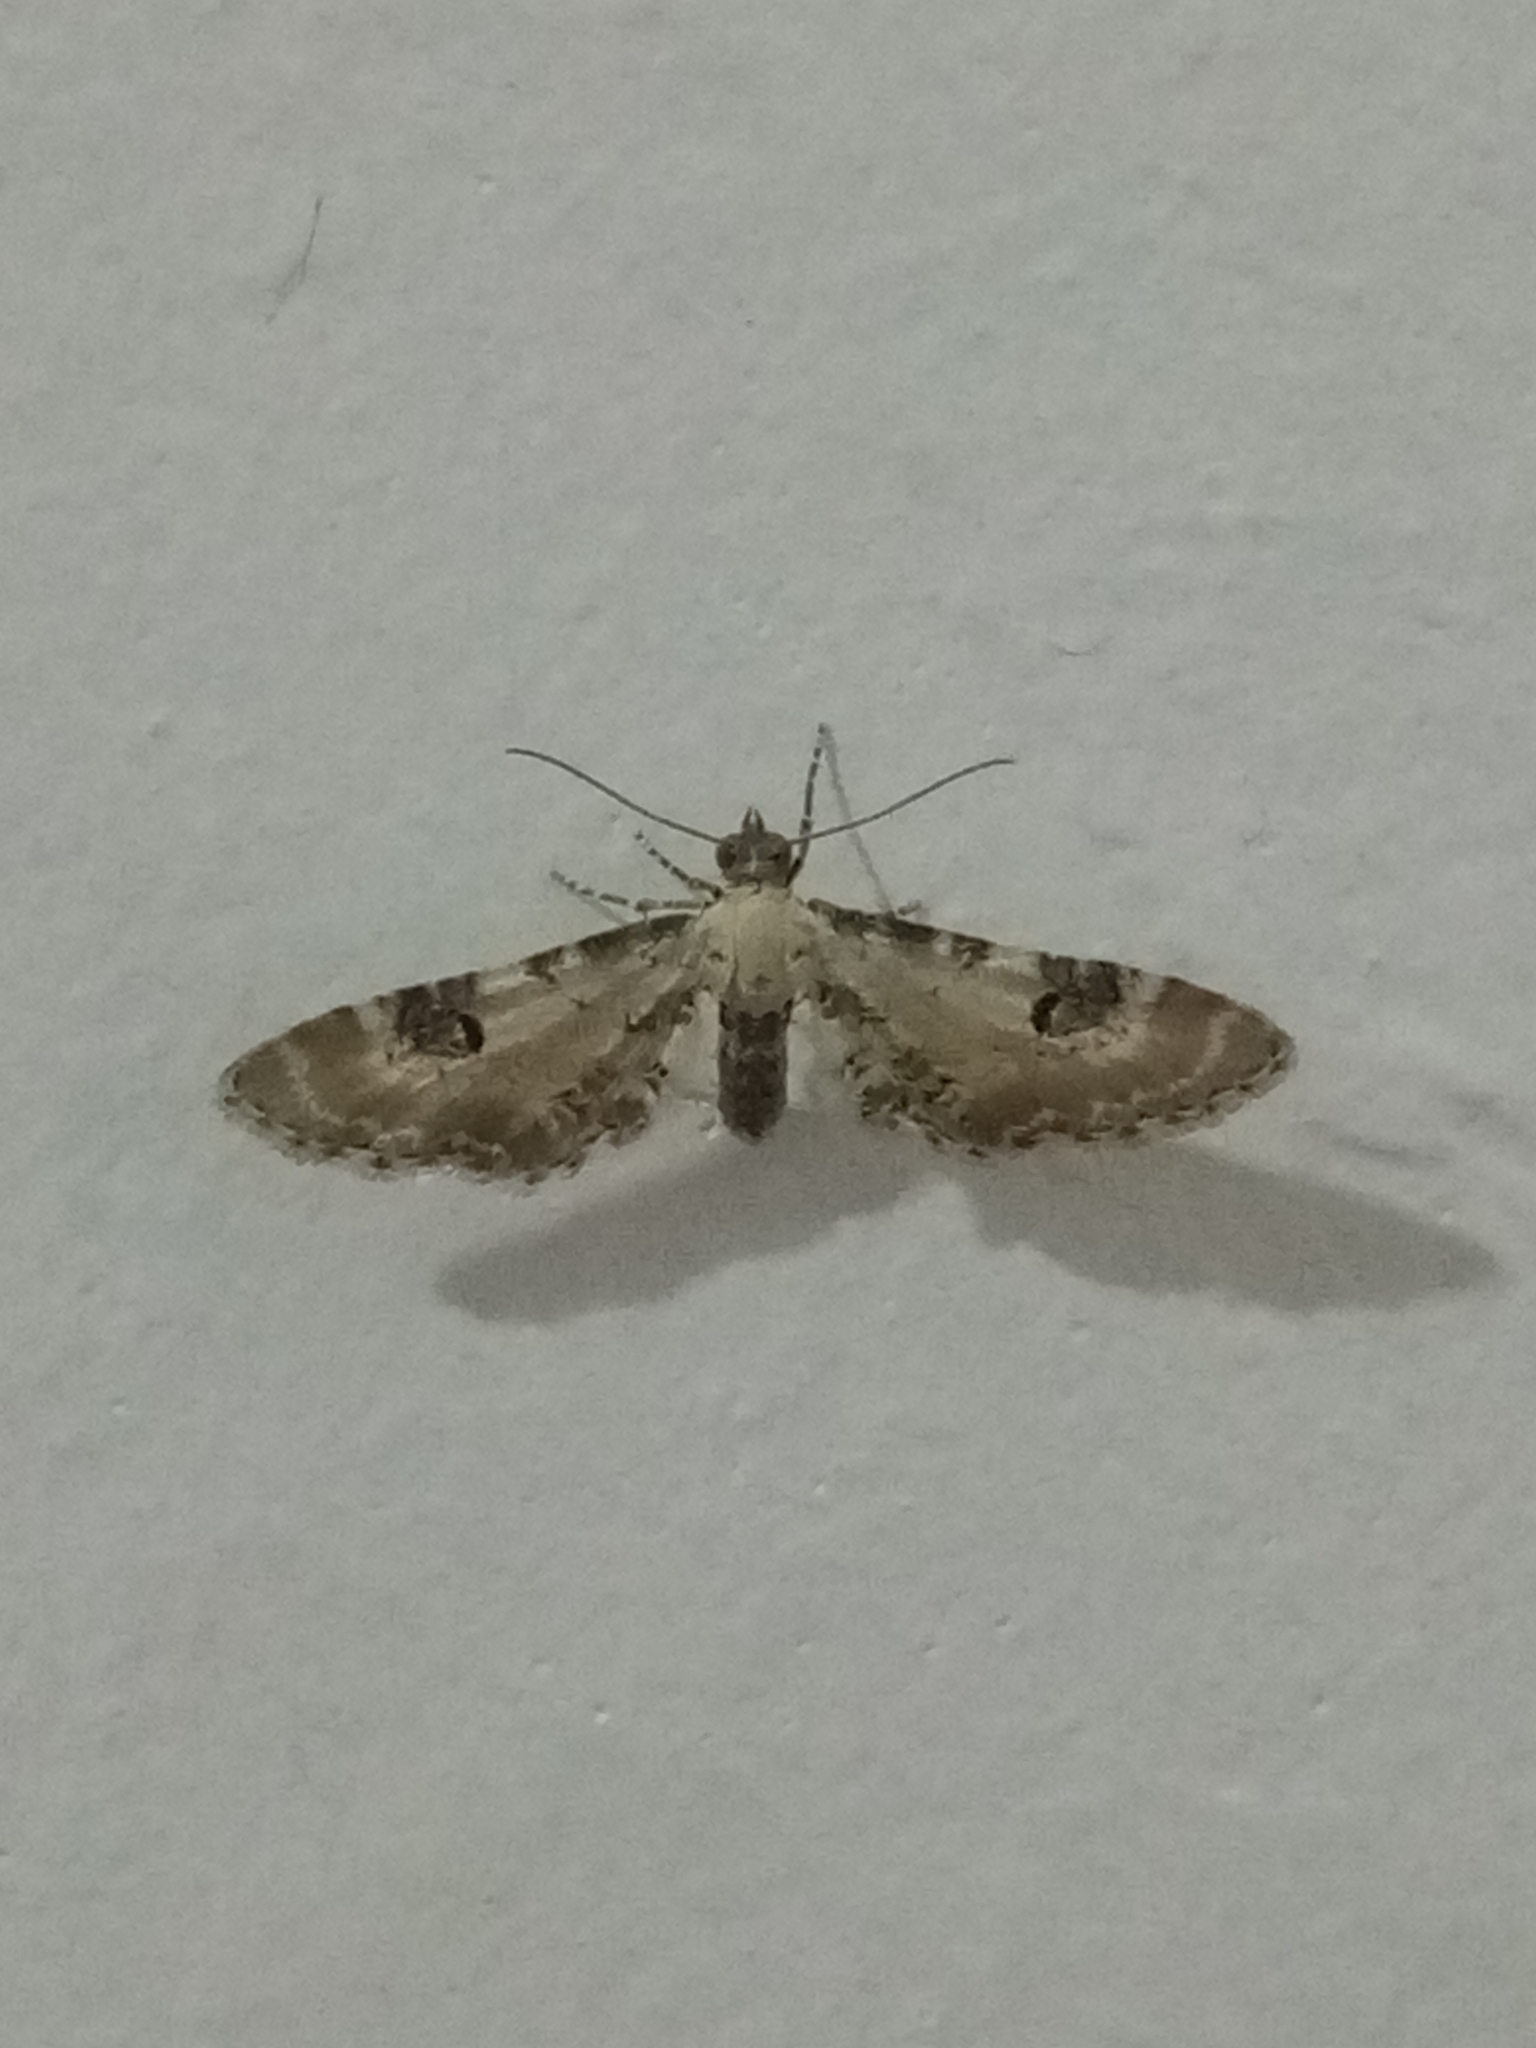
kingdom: Animalia
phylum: Arthropoda
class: Insecta
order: Lepidoptera
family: Geometridae
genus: Eupithecia
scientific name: Eupithecia centaureata
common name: Lime-speck pug
